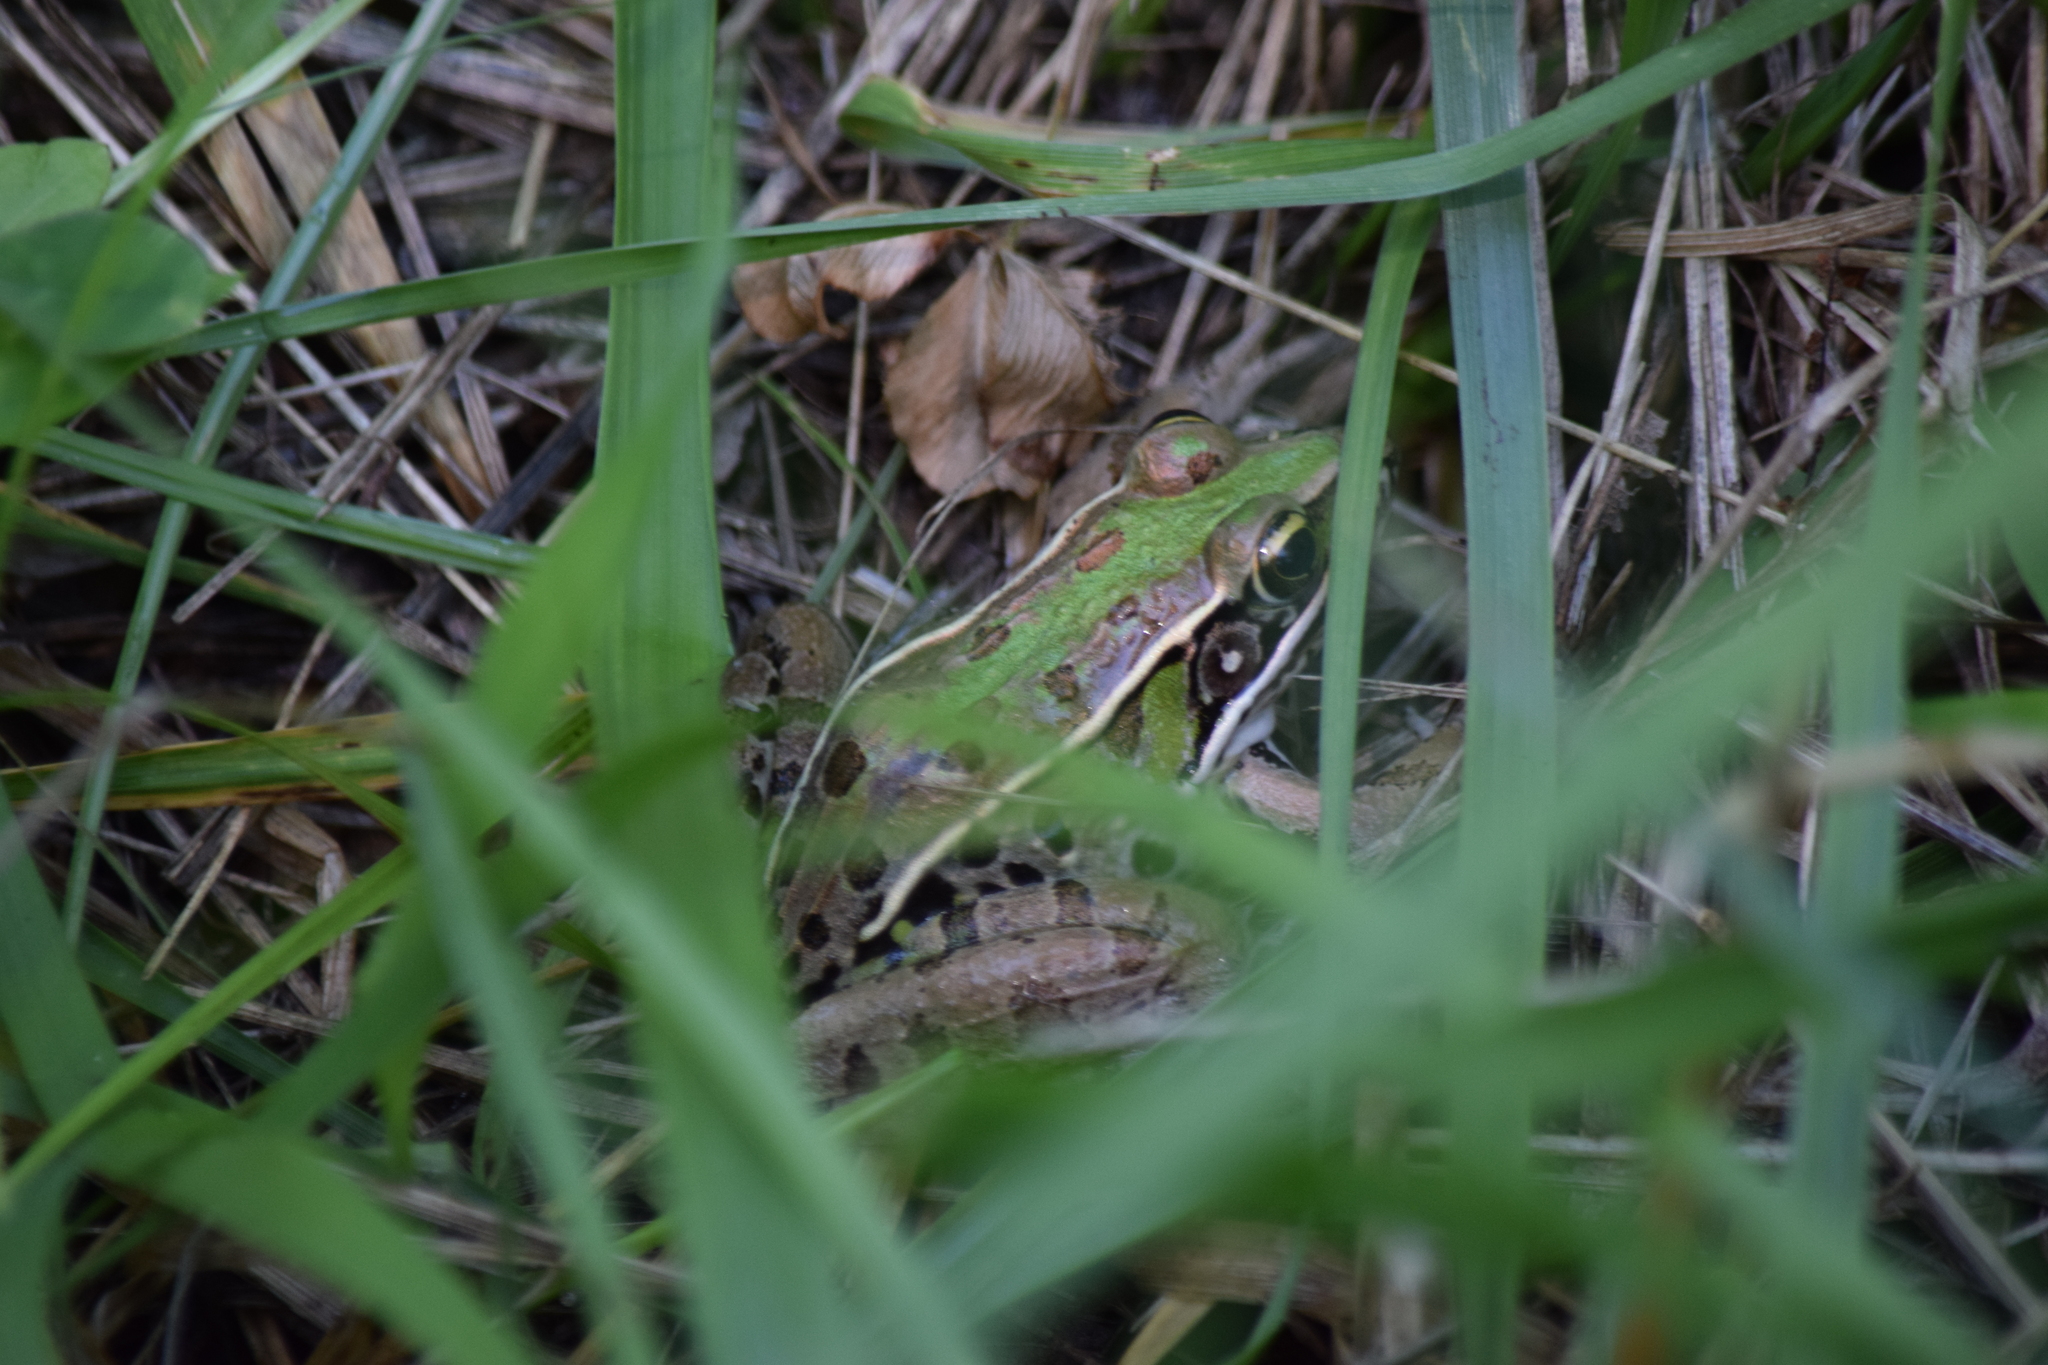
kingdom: Animalia
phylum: Chordata
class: Amphibia
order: Anura
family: Ranidae
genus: Lithobates
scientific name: Lithobates sphenocephalus
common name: Southern leopard frog
